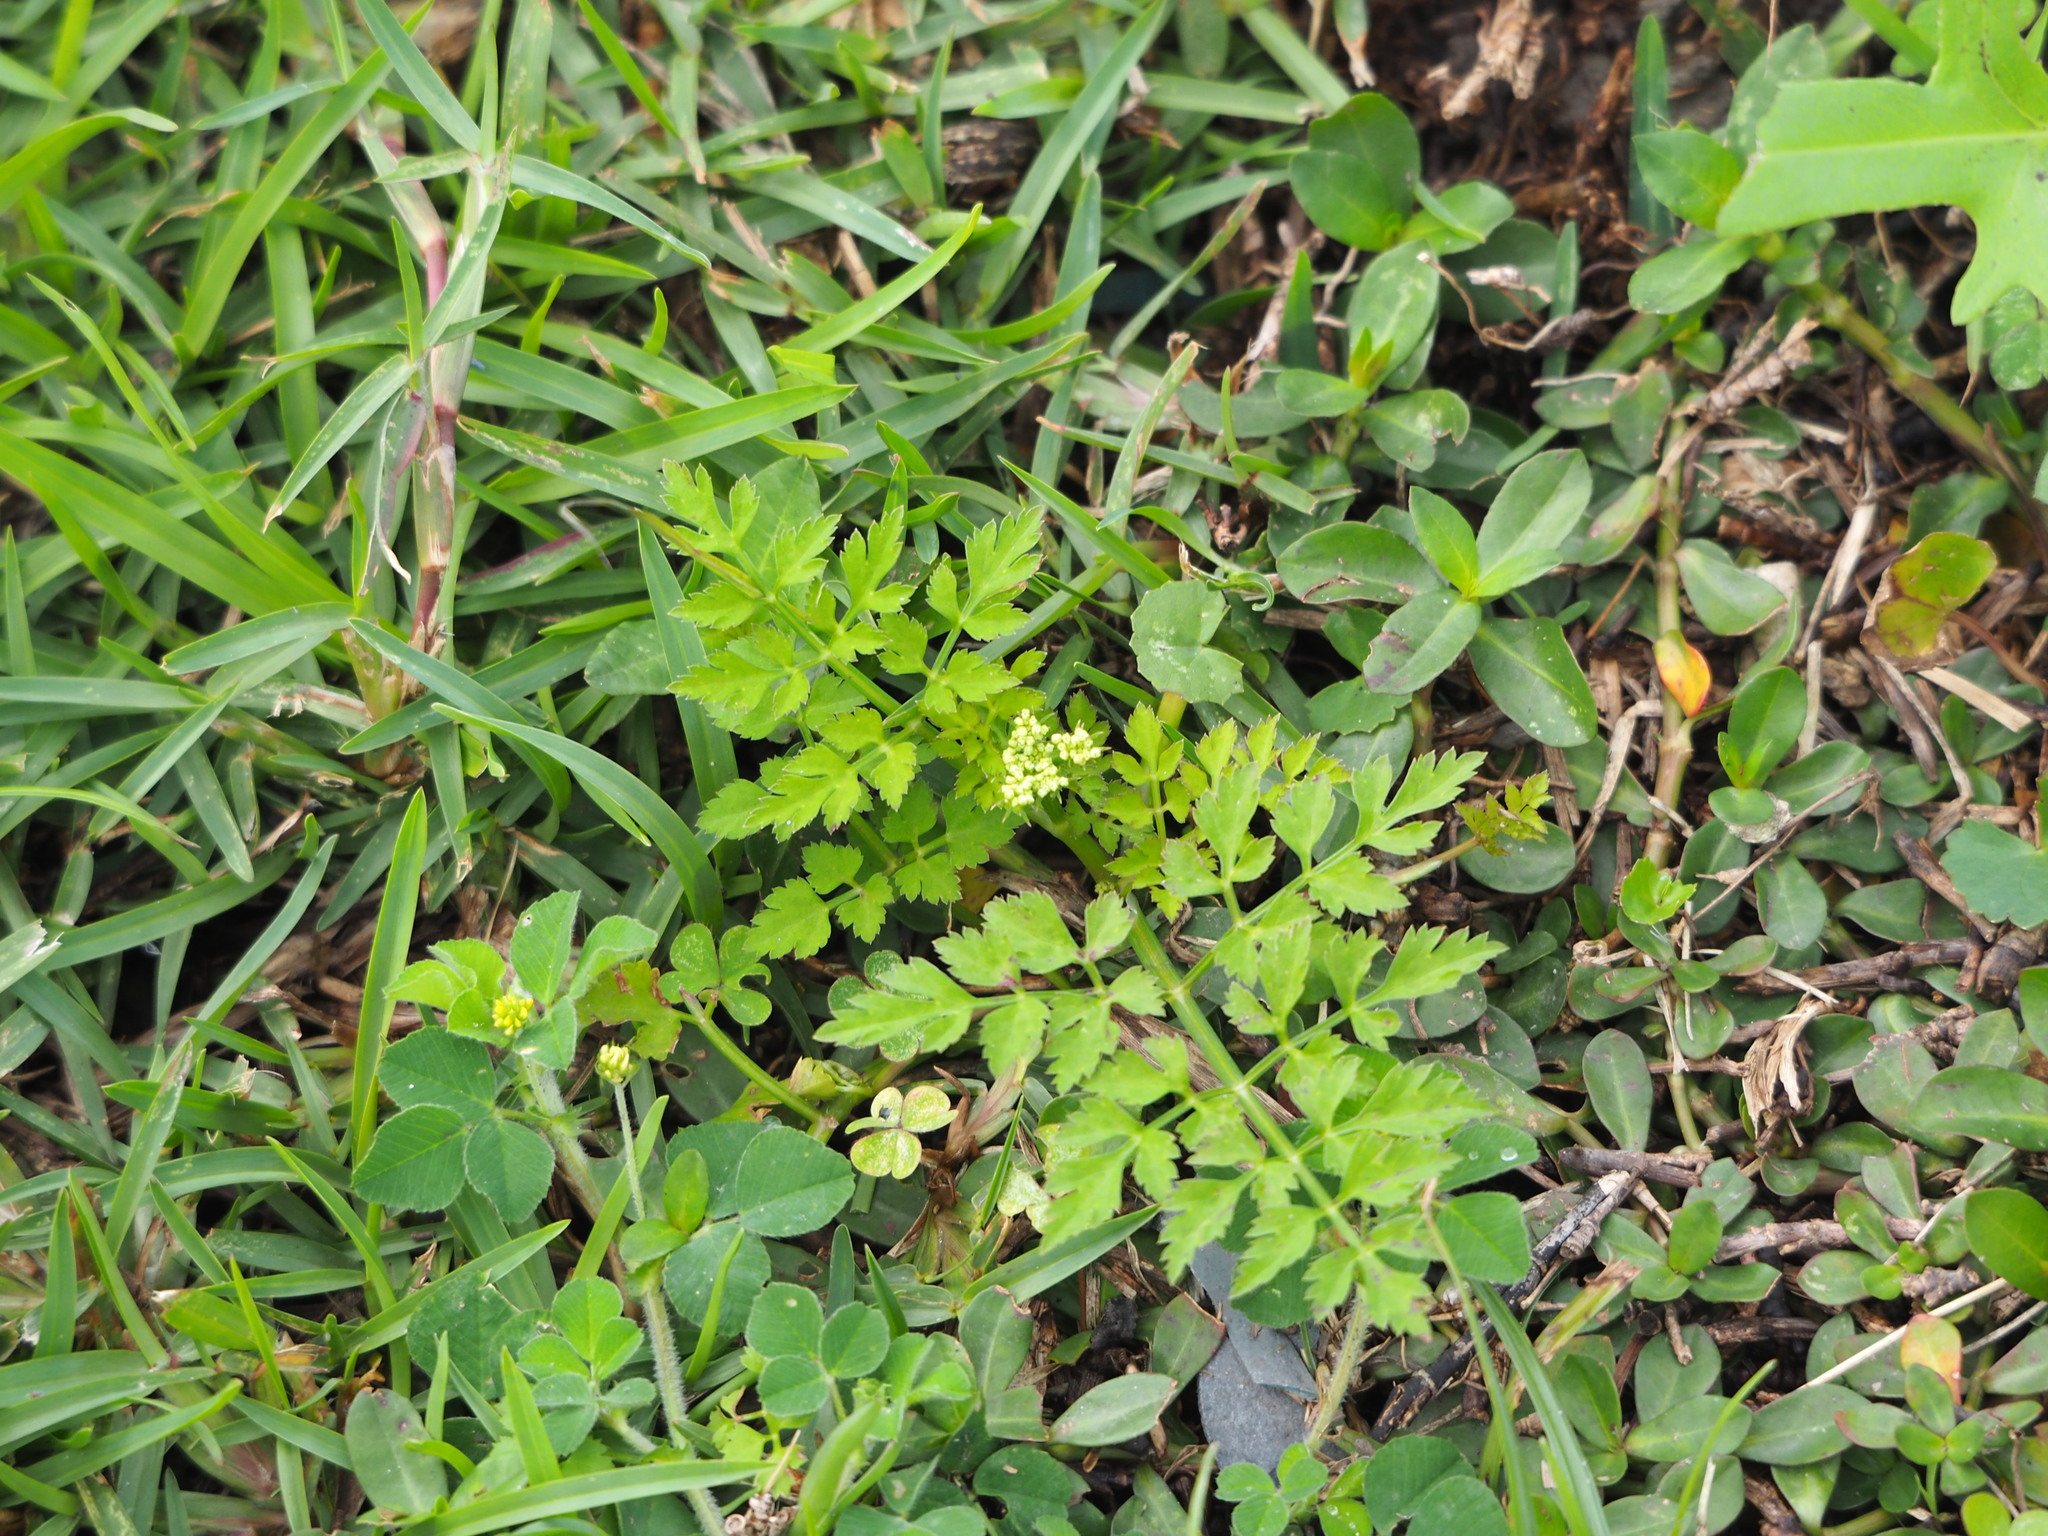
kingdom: Plantae
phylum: Tracheophyta
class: Magnoliopsida
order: Apiales
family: Apiaceae
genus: Oenanthe
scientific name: Oenanthe javanica
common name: Java water-dropwort
